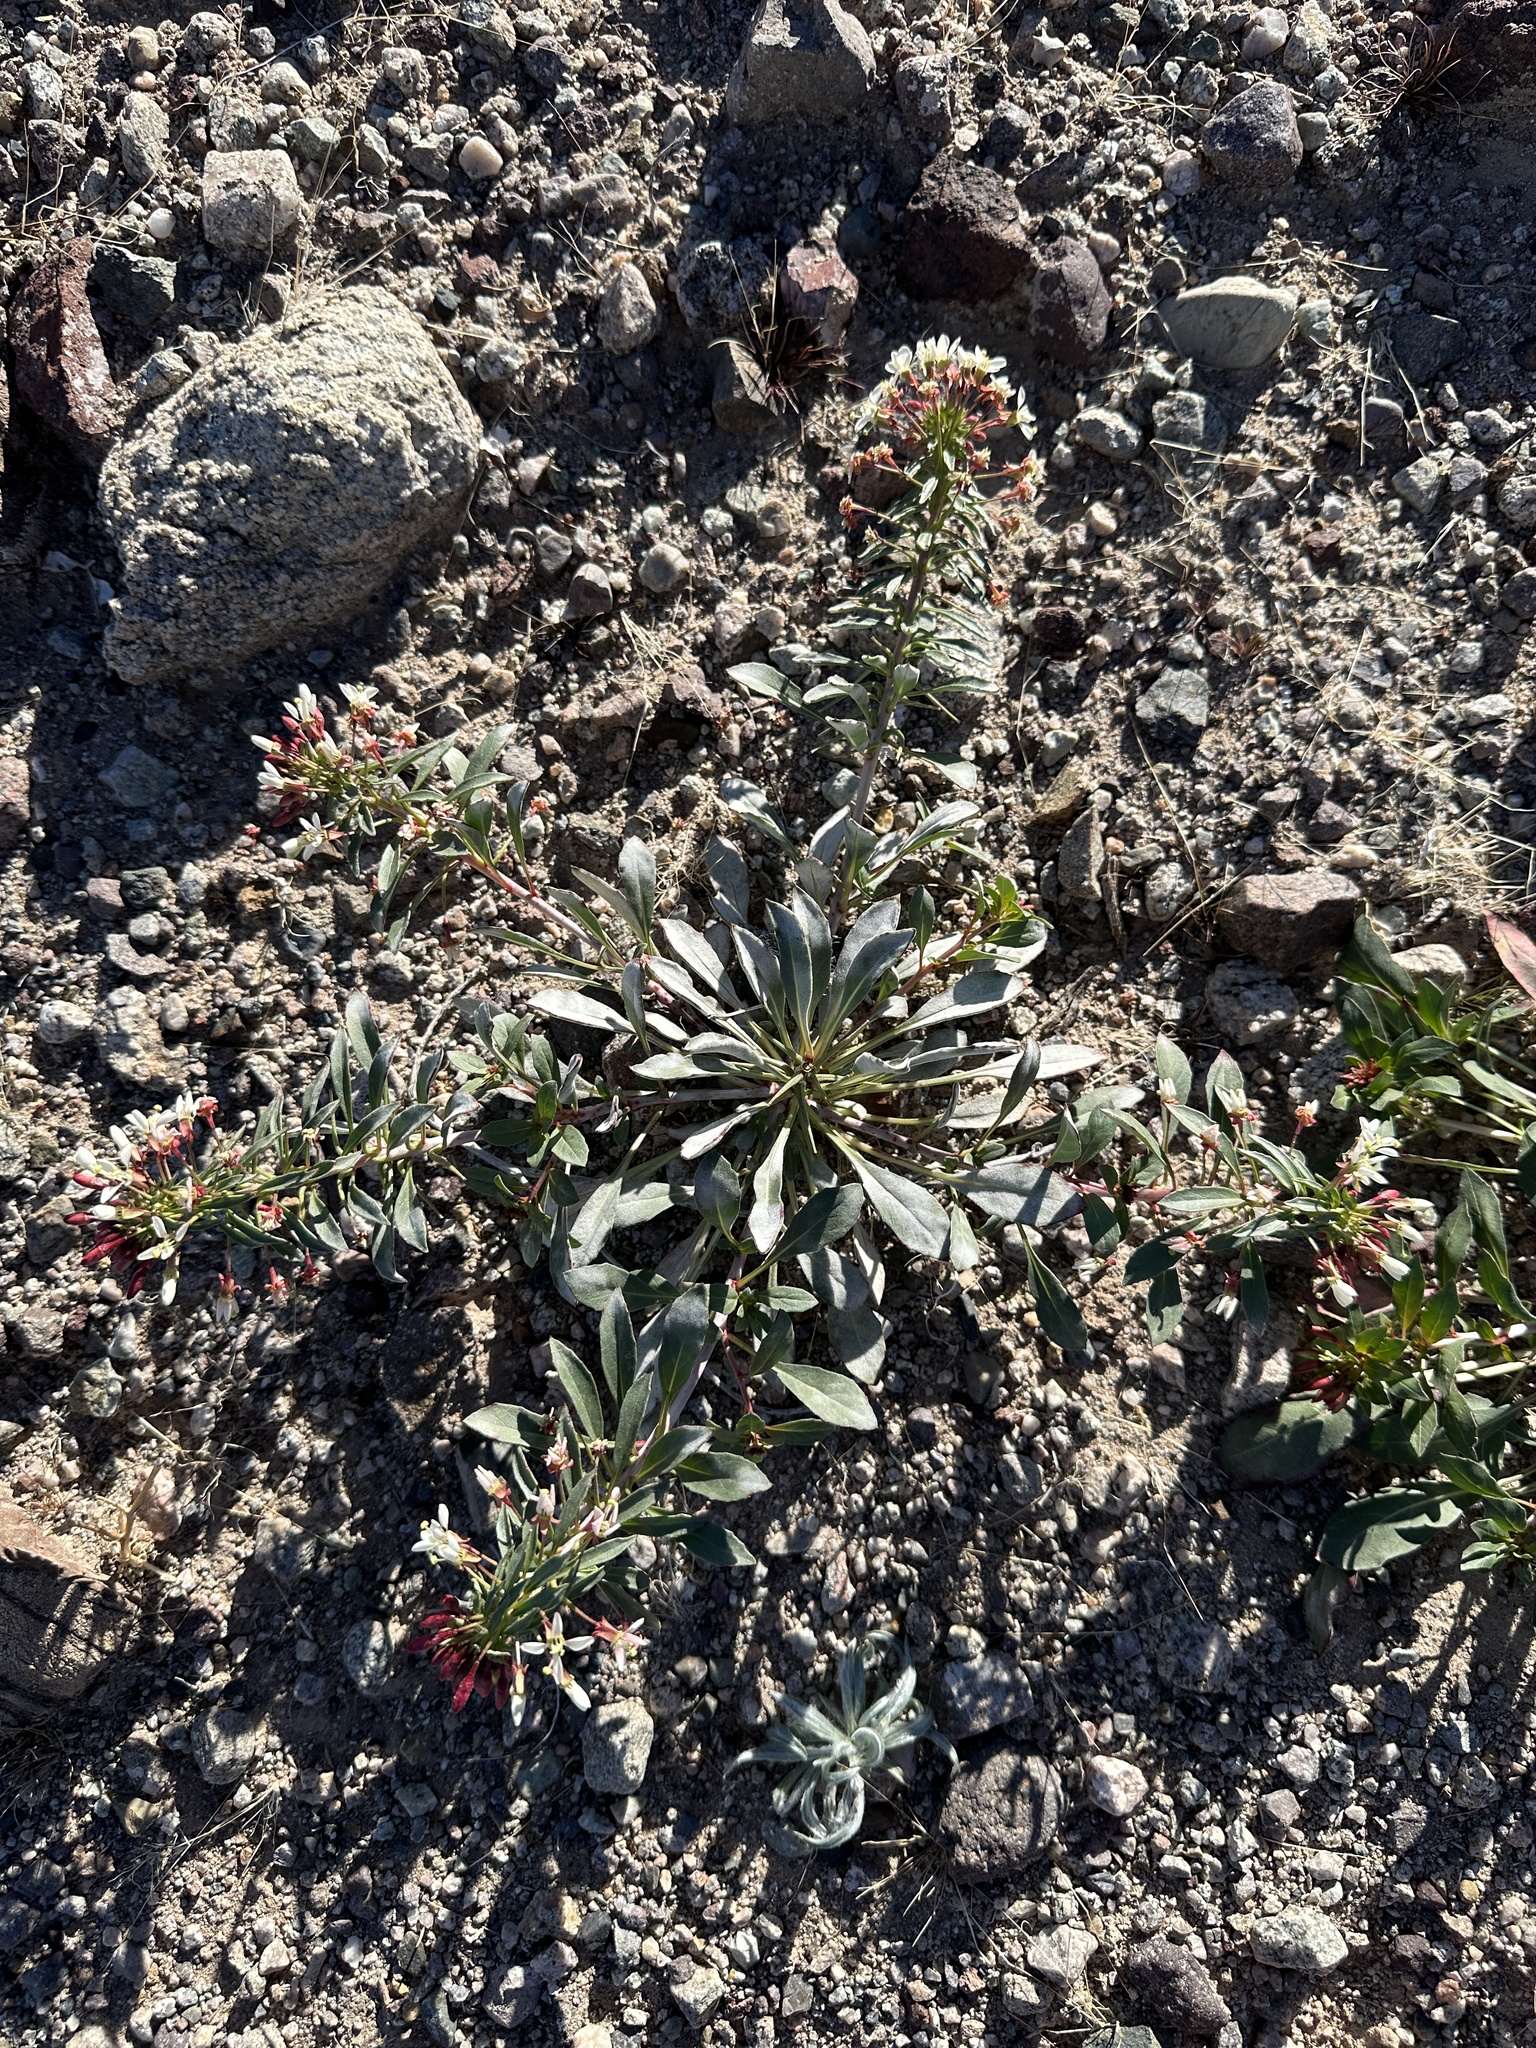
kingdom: Plantae
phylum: Tracheophyta
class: Magnoliopsida
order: Myrtales
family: Onagraceae
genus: Eremothera
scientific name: Eremothera boothii
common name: Booth's evening primrose
